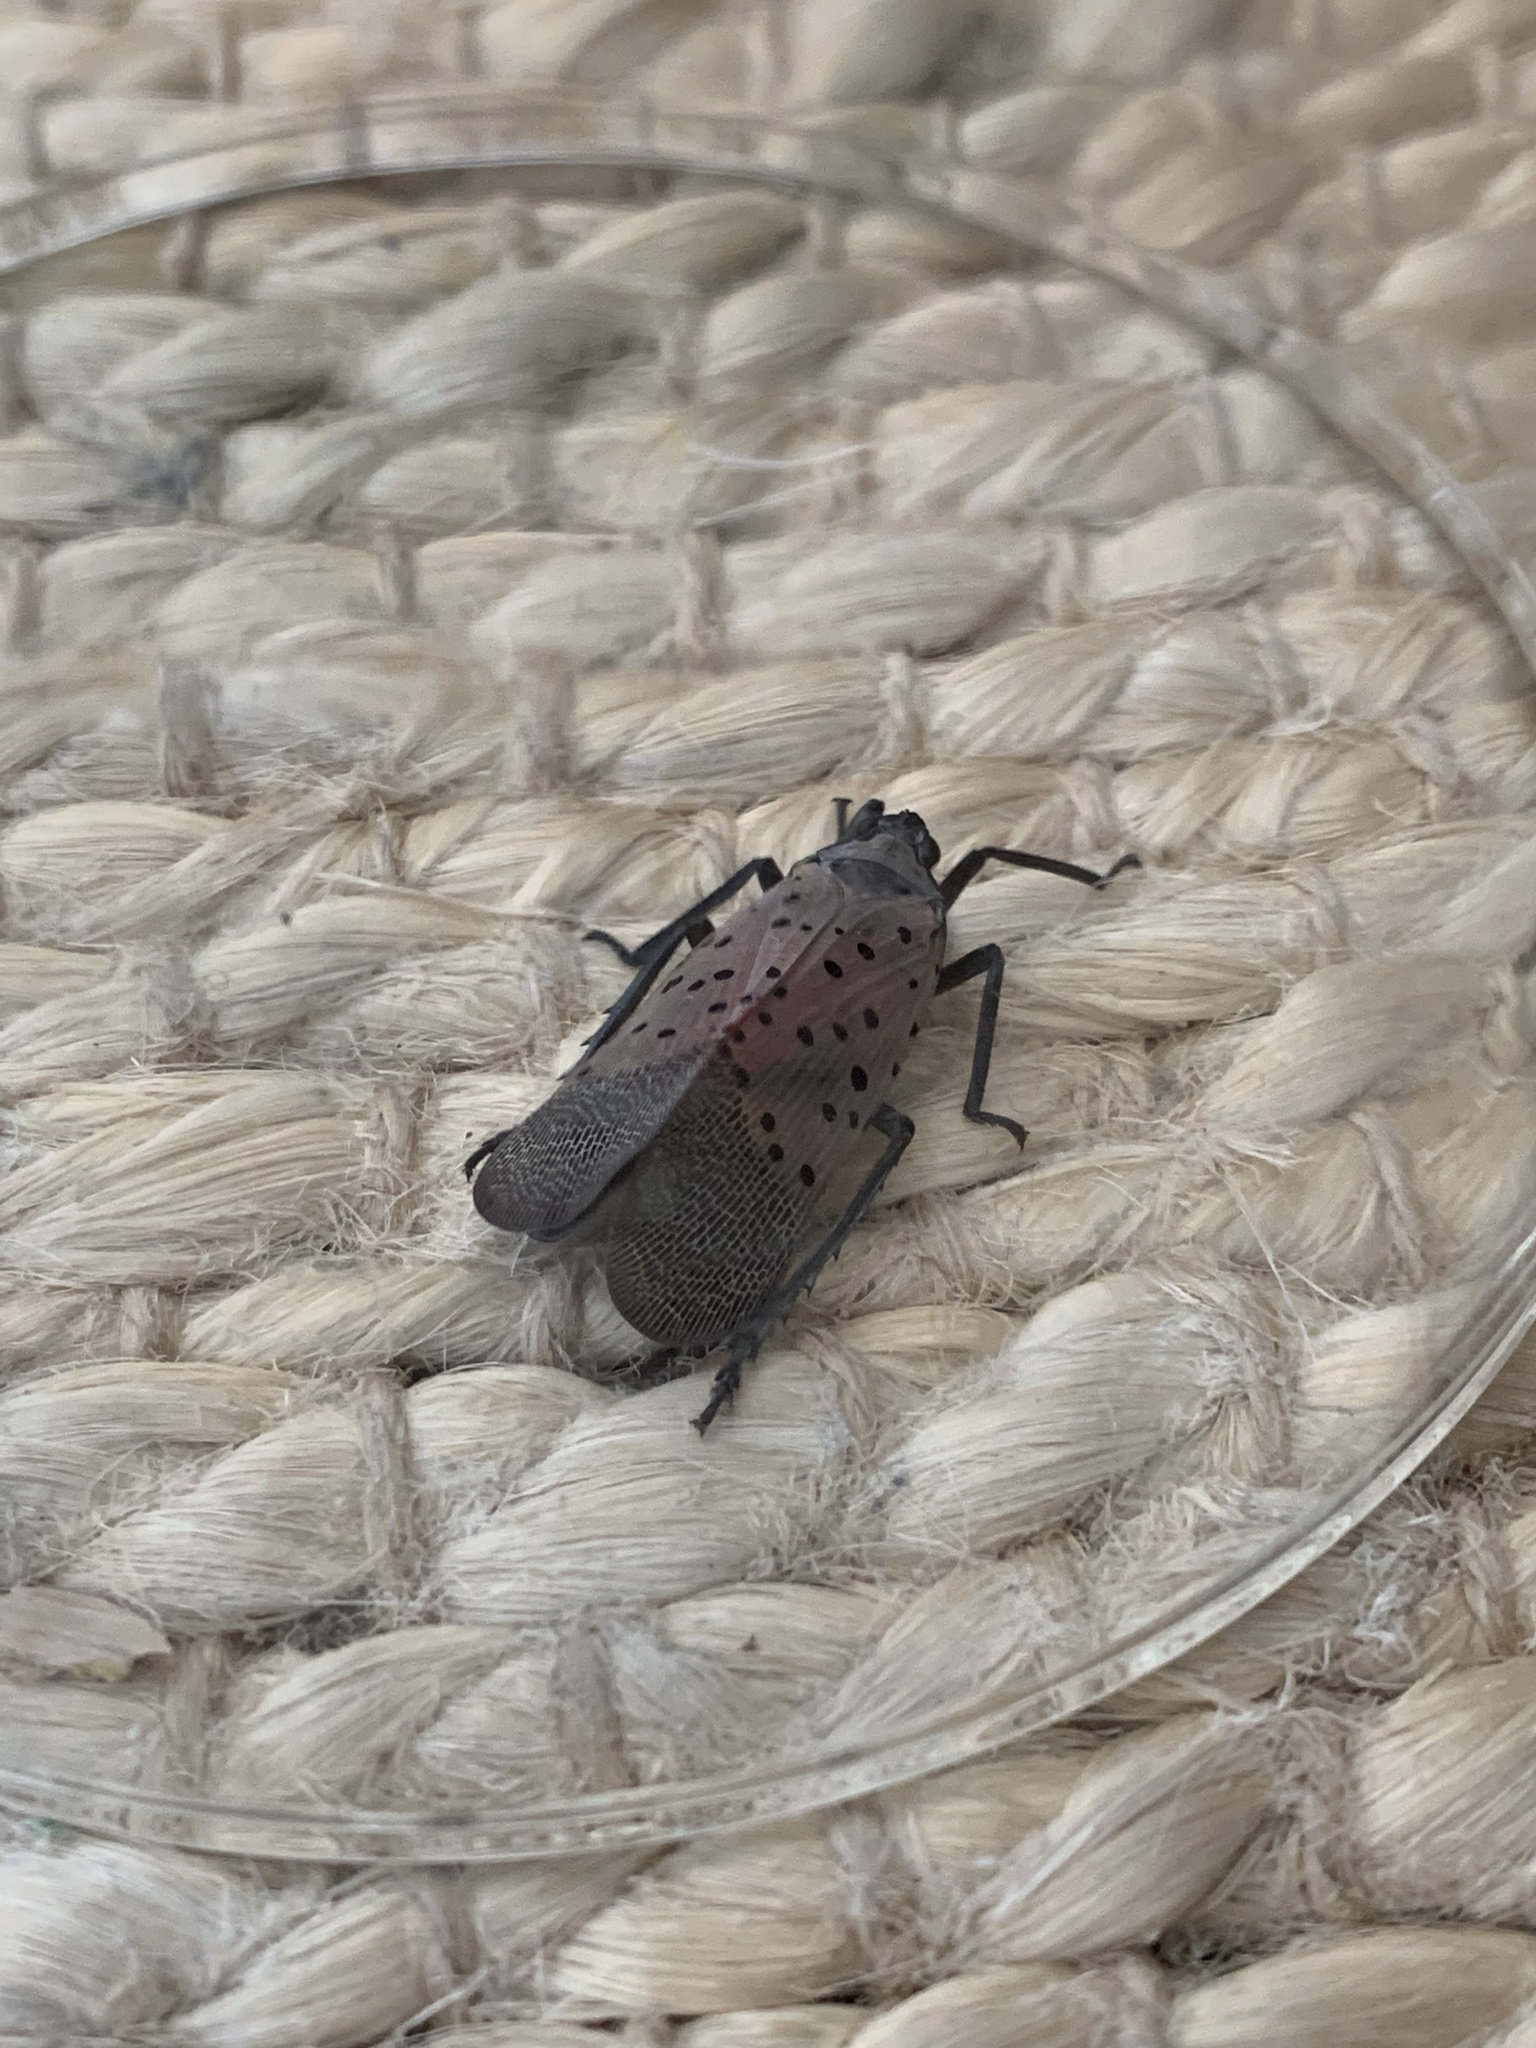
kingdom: Animalia
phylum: Arthropoda
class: Insecta
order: Hemiptera
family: Fulgoridae
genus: Lycorma
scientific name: Lycorma delicatula
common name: Spotted lanternfly
